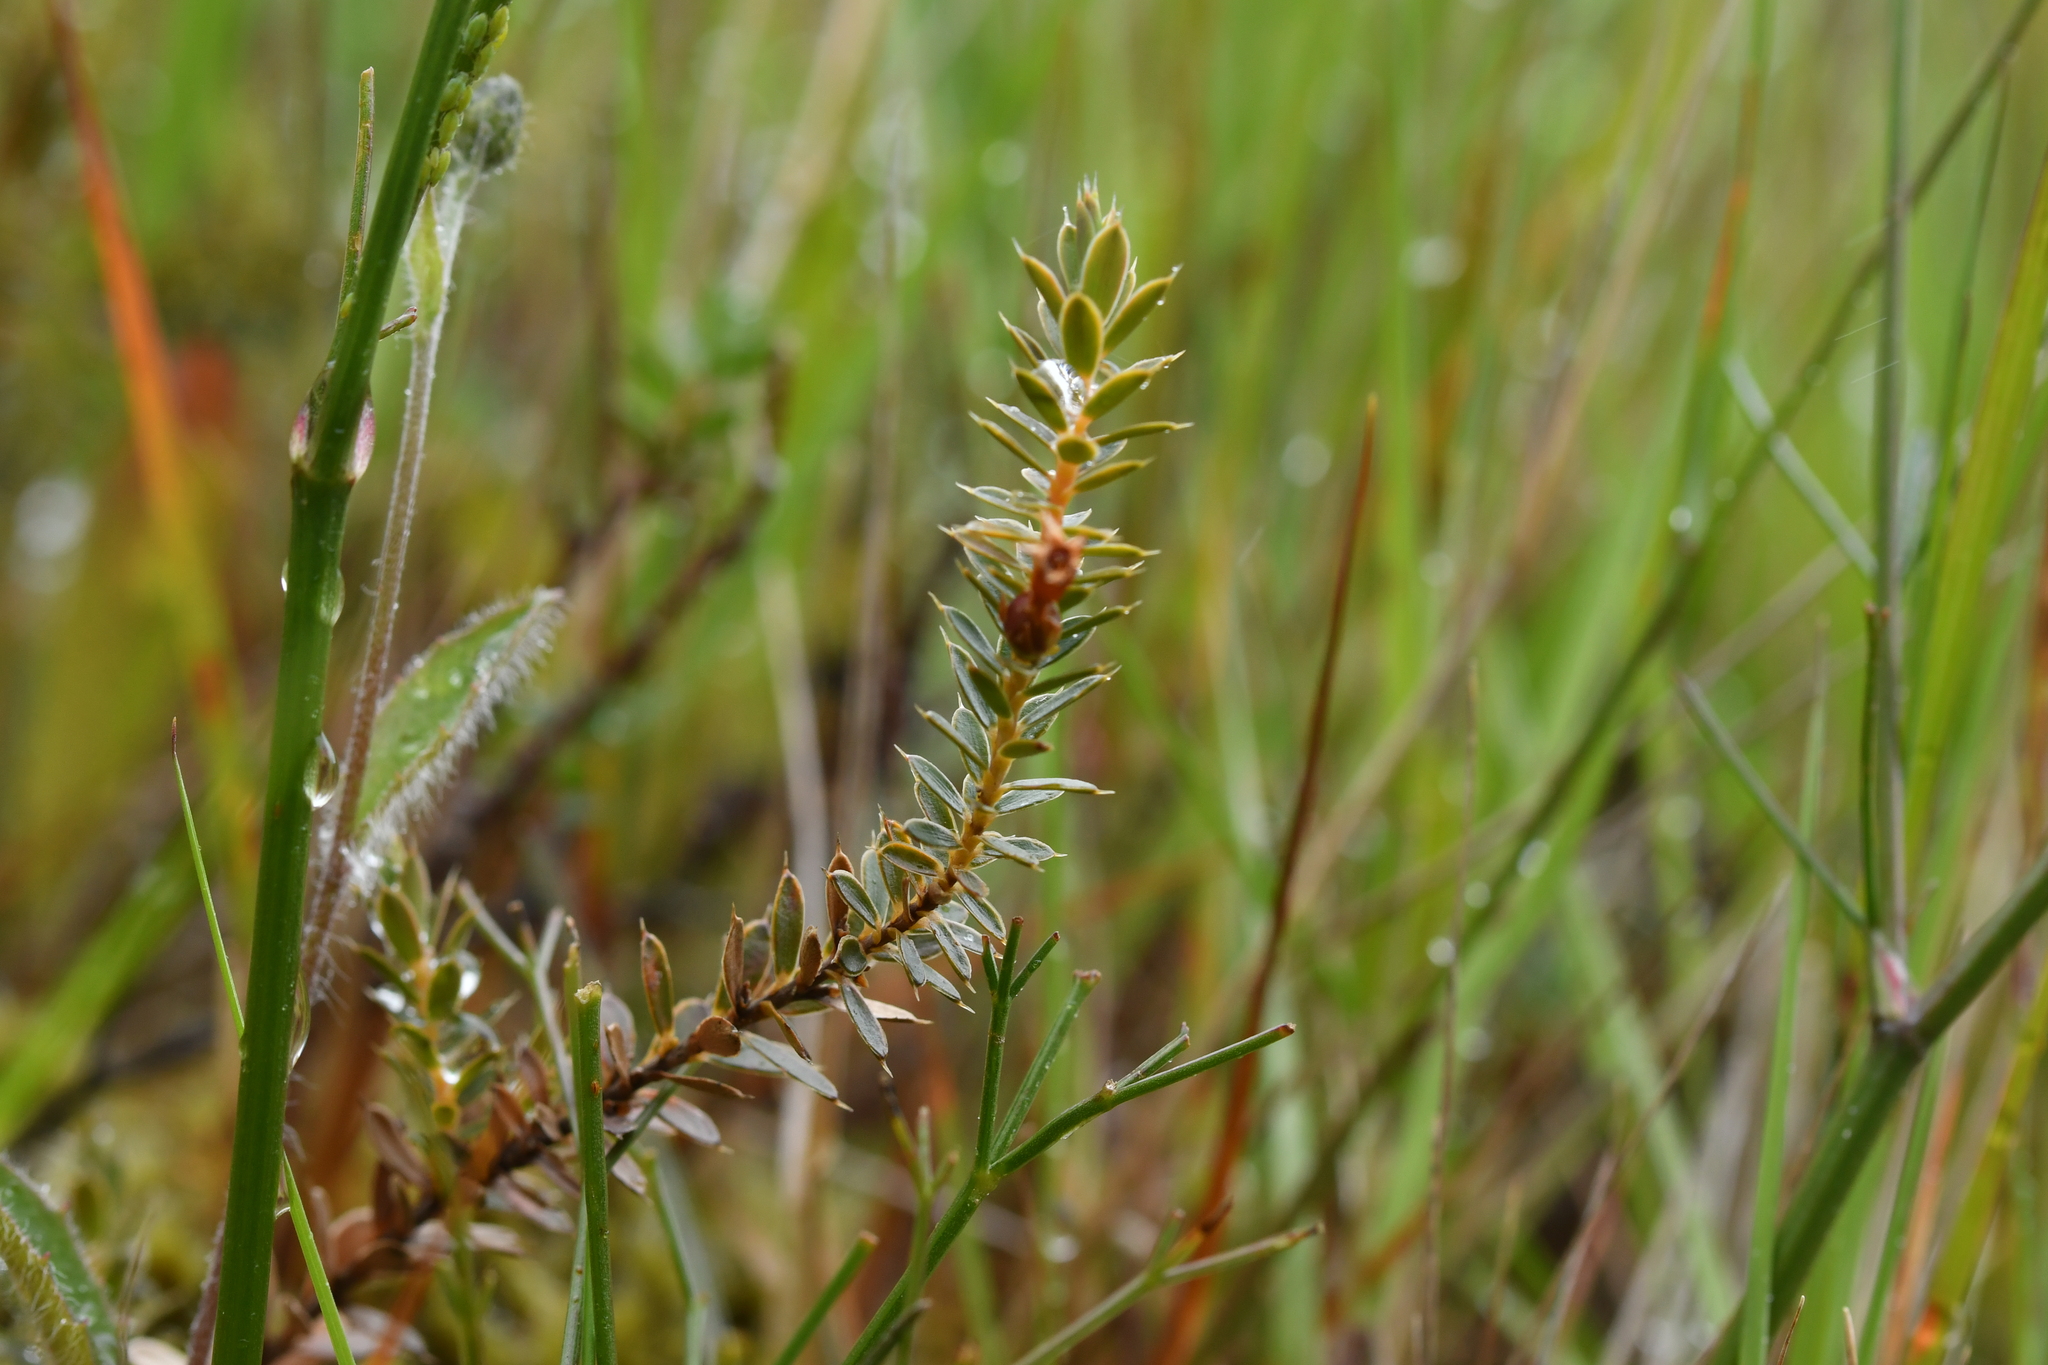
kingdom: Plantae
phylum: Tracheophyta
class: Magnoliopsida
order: Ericales
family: Ericaceae
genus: Styphelia
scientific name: Styphelia nesophila
